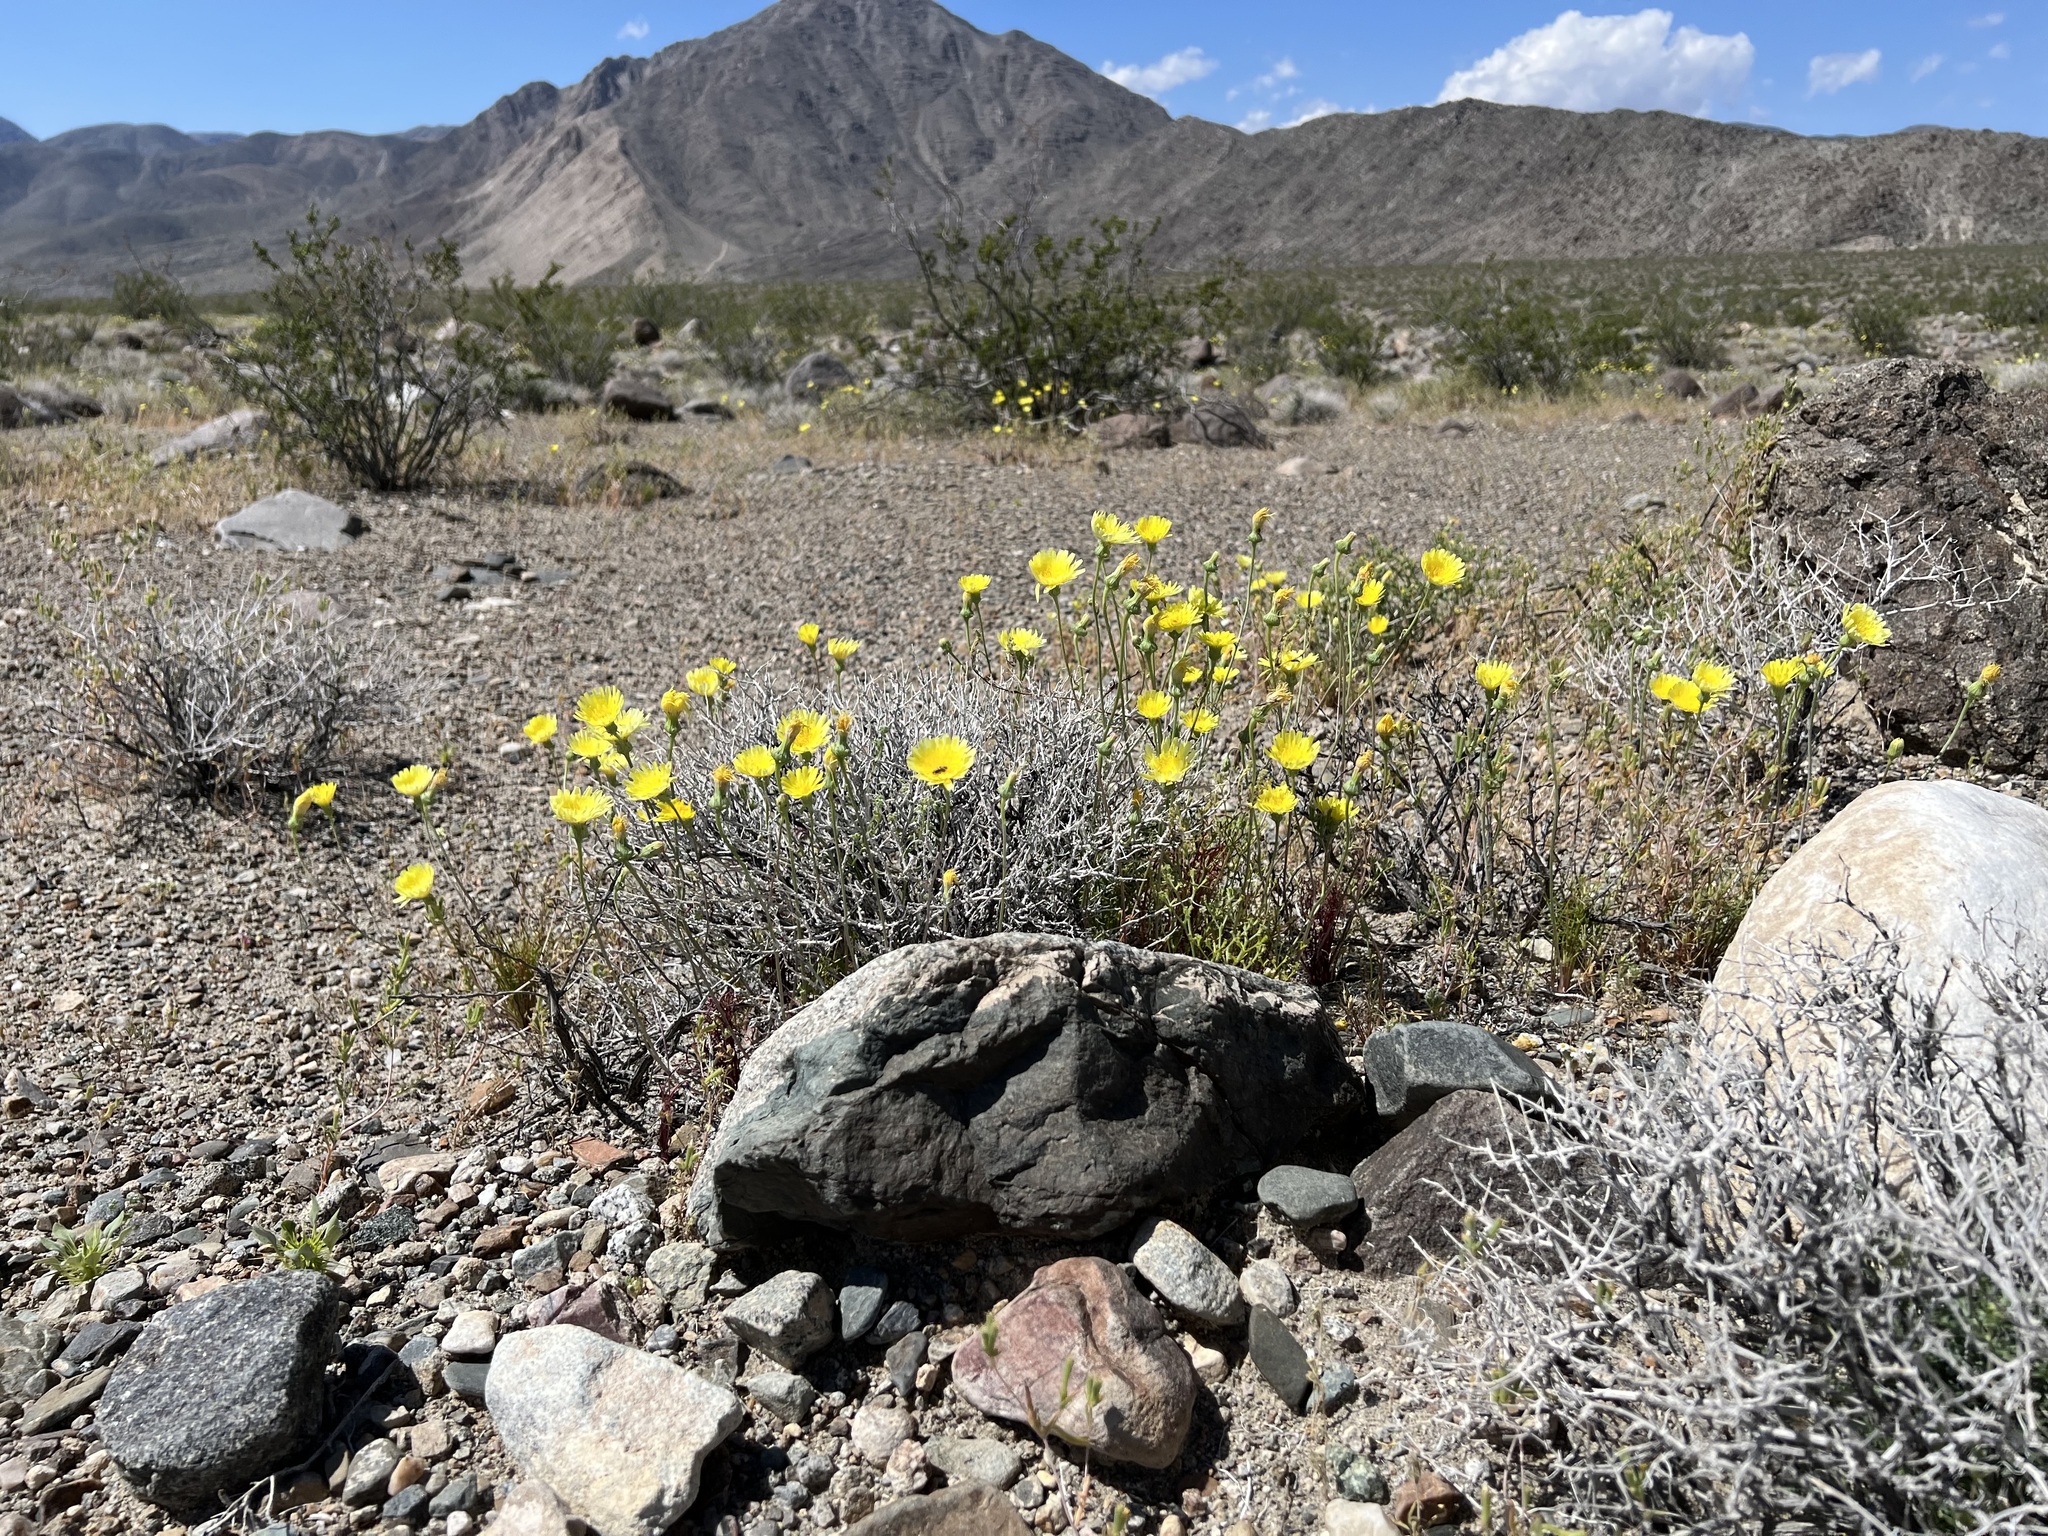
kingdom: Plantae
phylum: Tracheophyta
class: Magnoliopsida
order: Asterales
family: Asteraceae
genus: Malacothrix
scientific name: Malacothrix glabrata
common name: Smooth desert-dandelion
